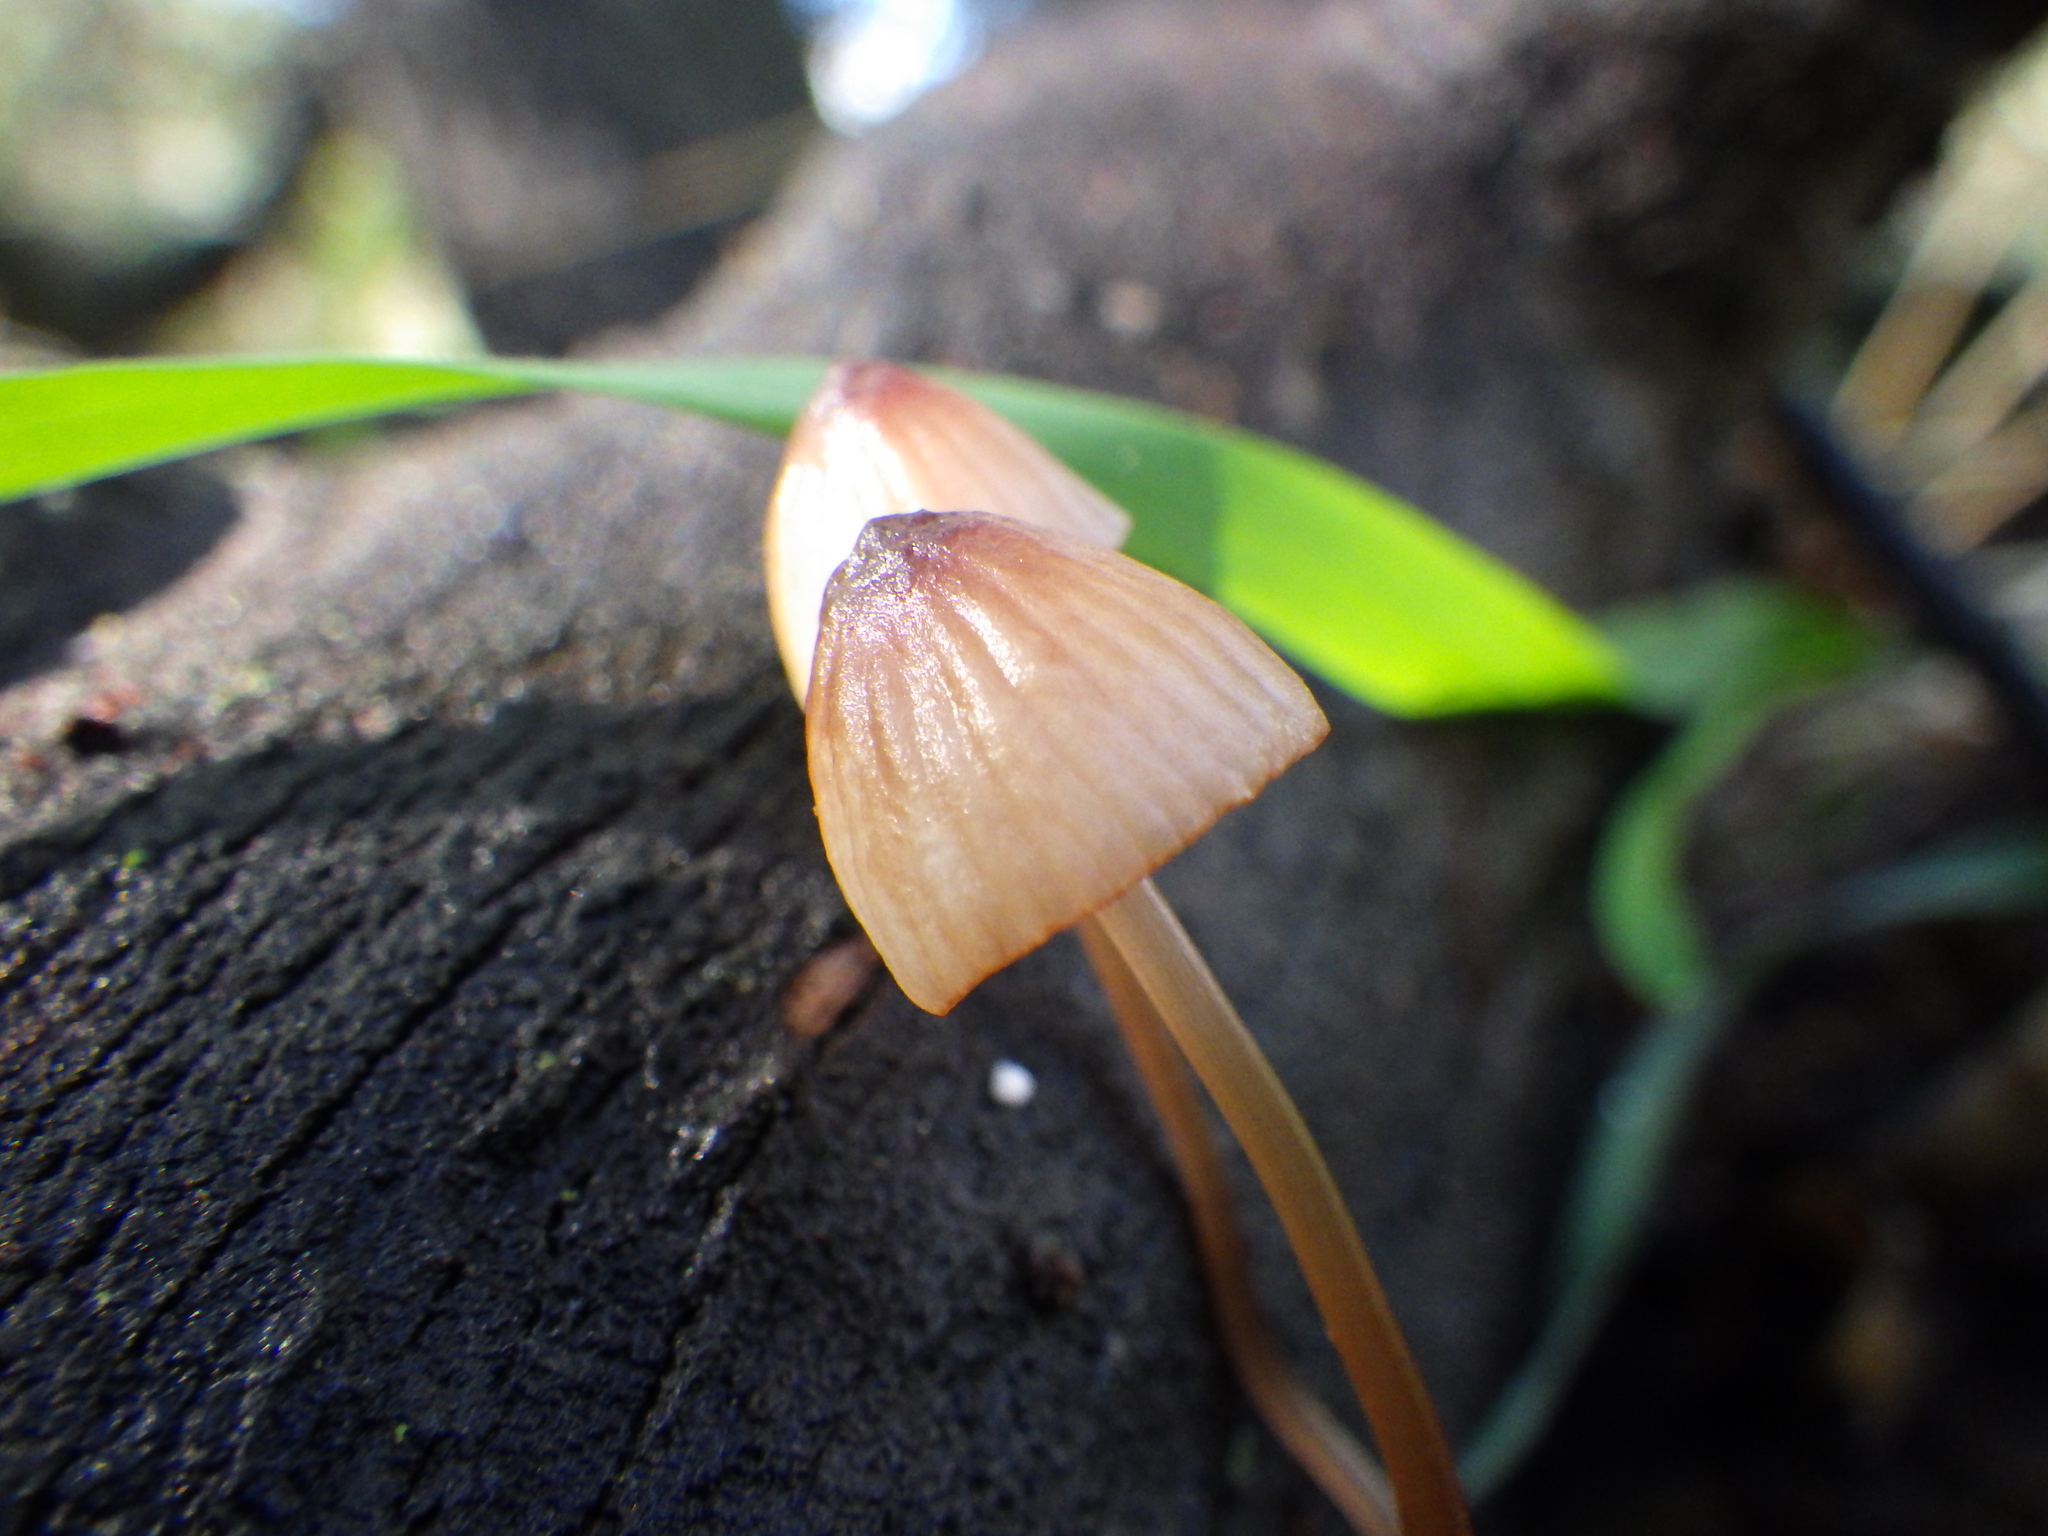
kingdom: Fungi
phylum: Basidiomycota
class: Agaricomycetes
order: Agaricales
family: Mycenaceae
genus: Mycena
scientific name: Mycena
